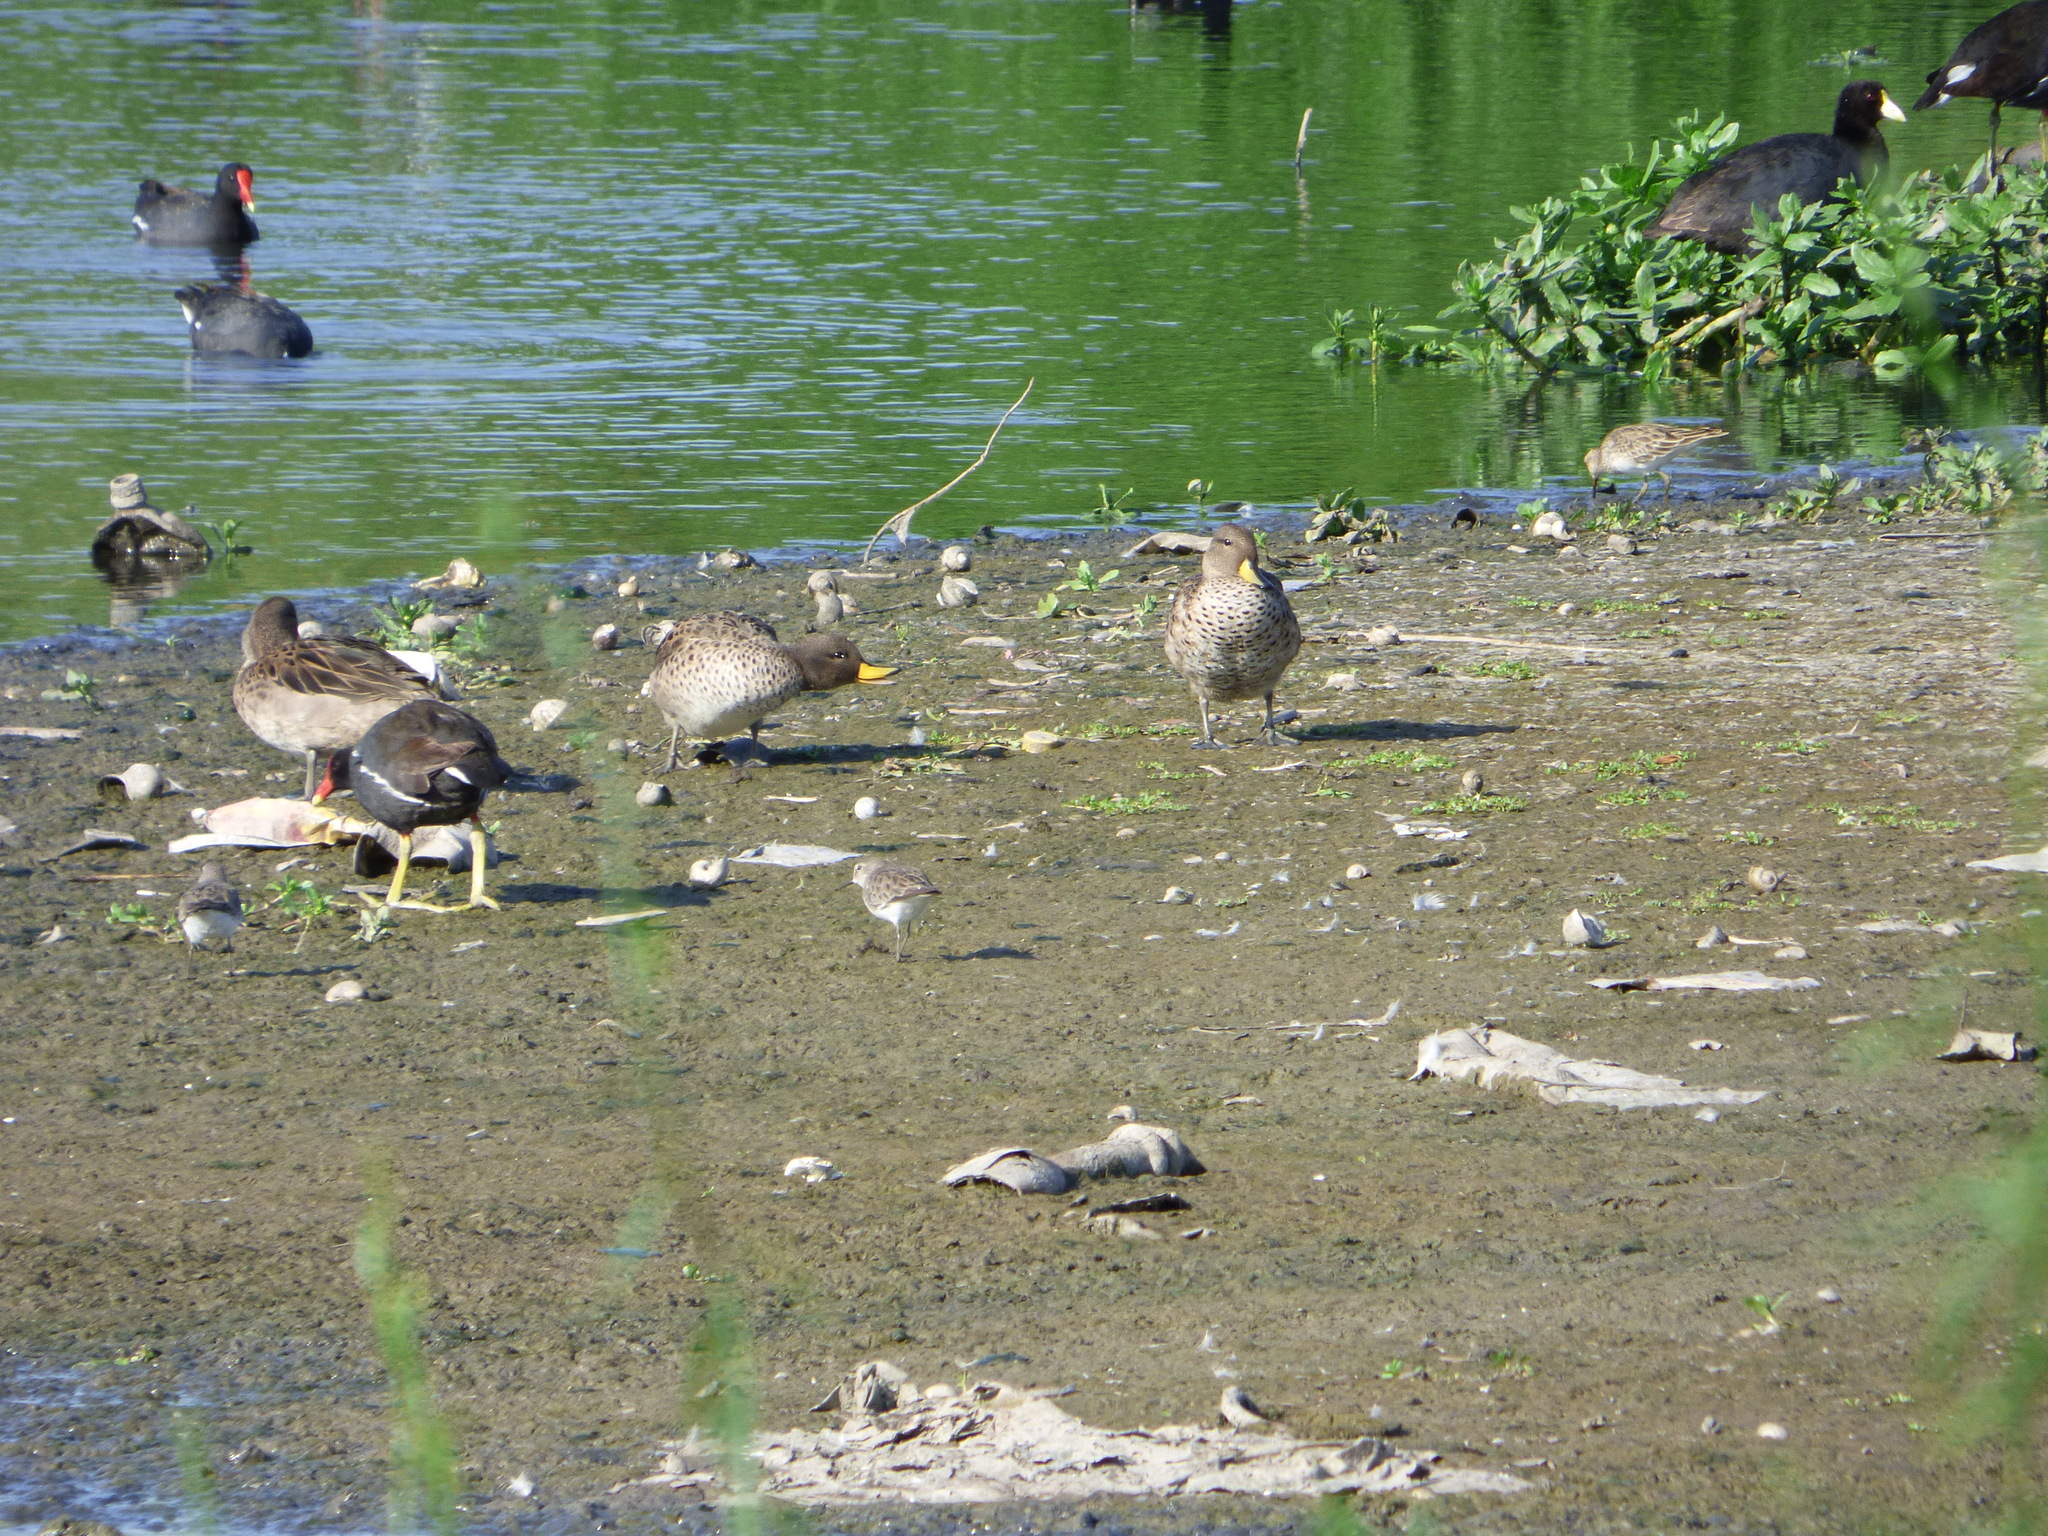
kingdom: Animalia
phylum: Chordata
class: Aves
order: Anseriformes
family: Anatidae
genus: Anas
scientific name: Anas flavirostris
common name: Yellow-billed teal
